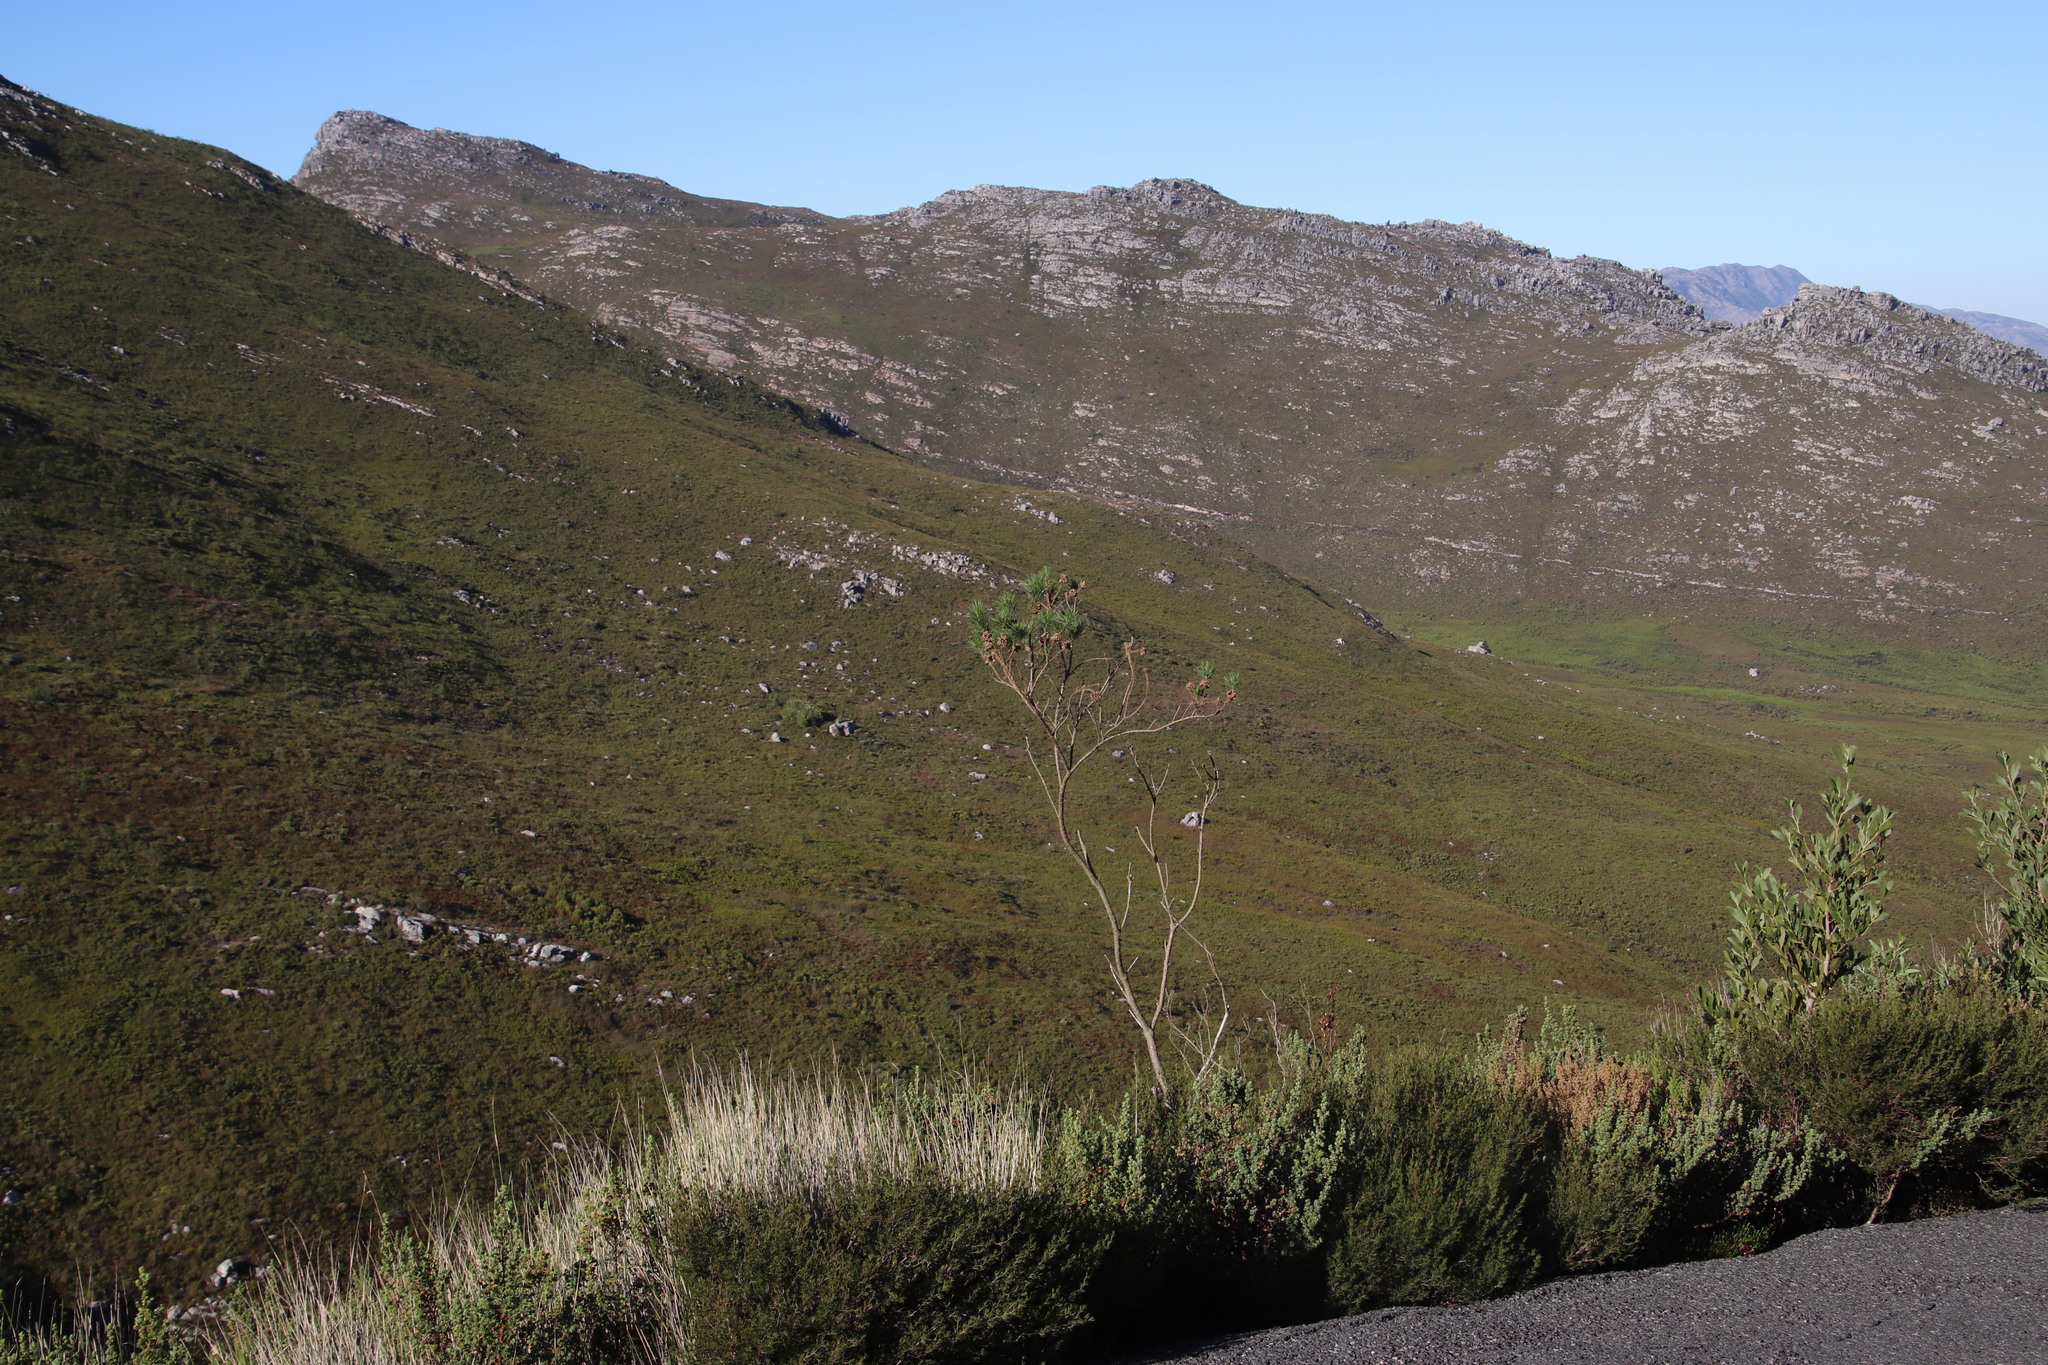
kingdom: Plantae
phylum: Tracheophyta
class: Magnoliopsida
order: Fabales
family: Fabaceae
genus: Psoralea
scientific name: Psoralea pinnata
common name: African scurfpea
